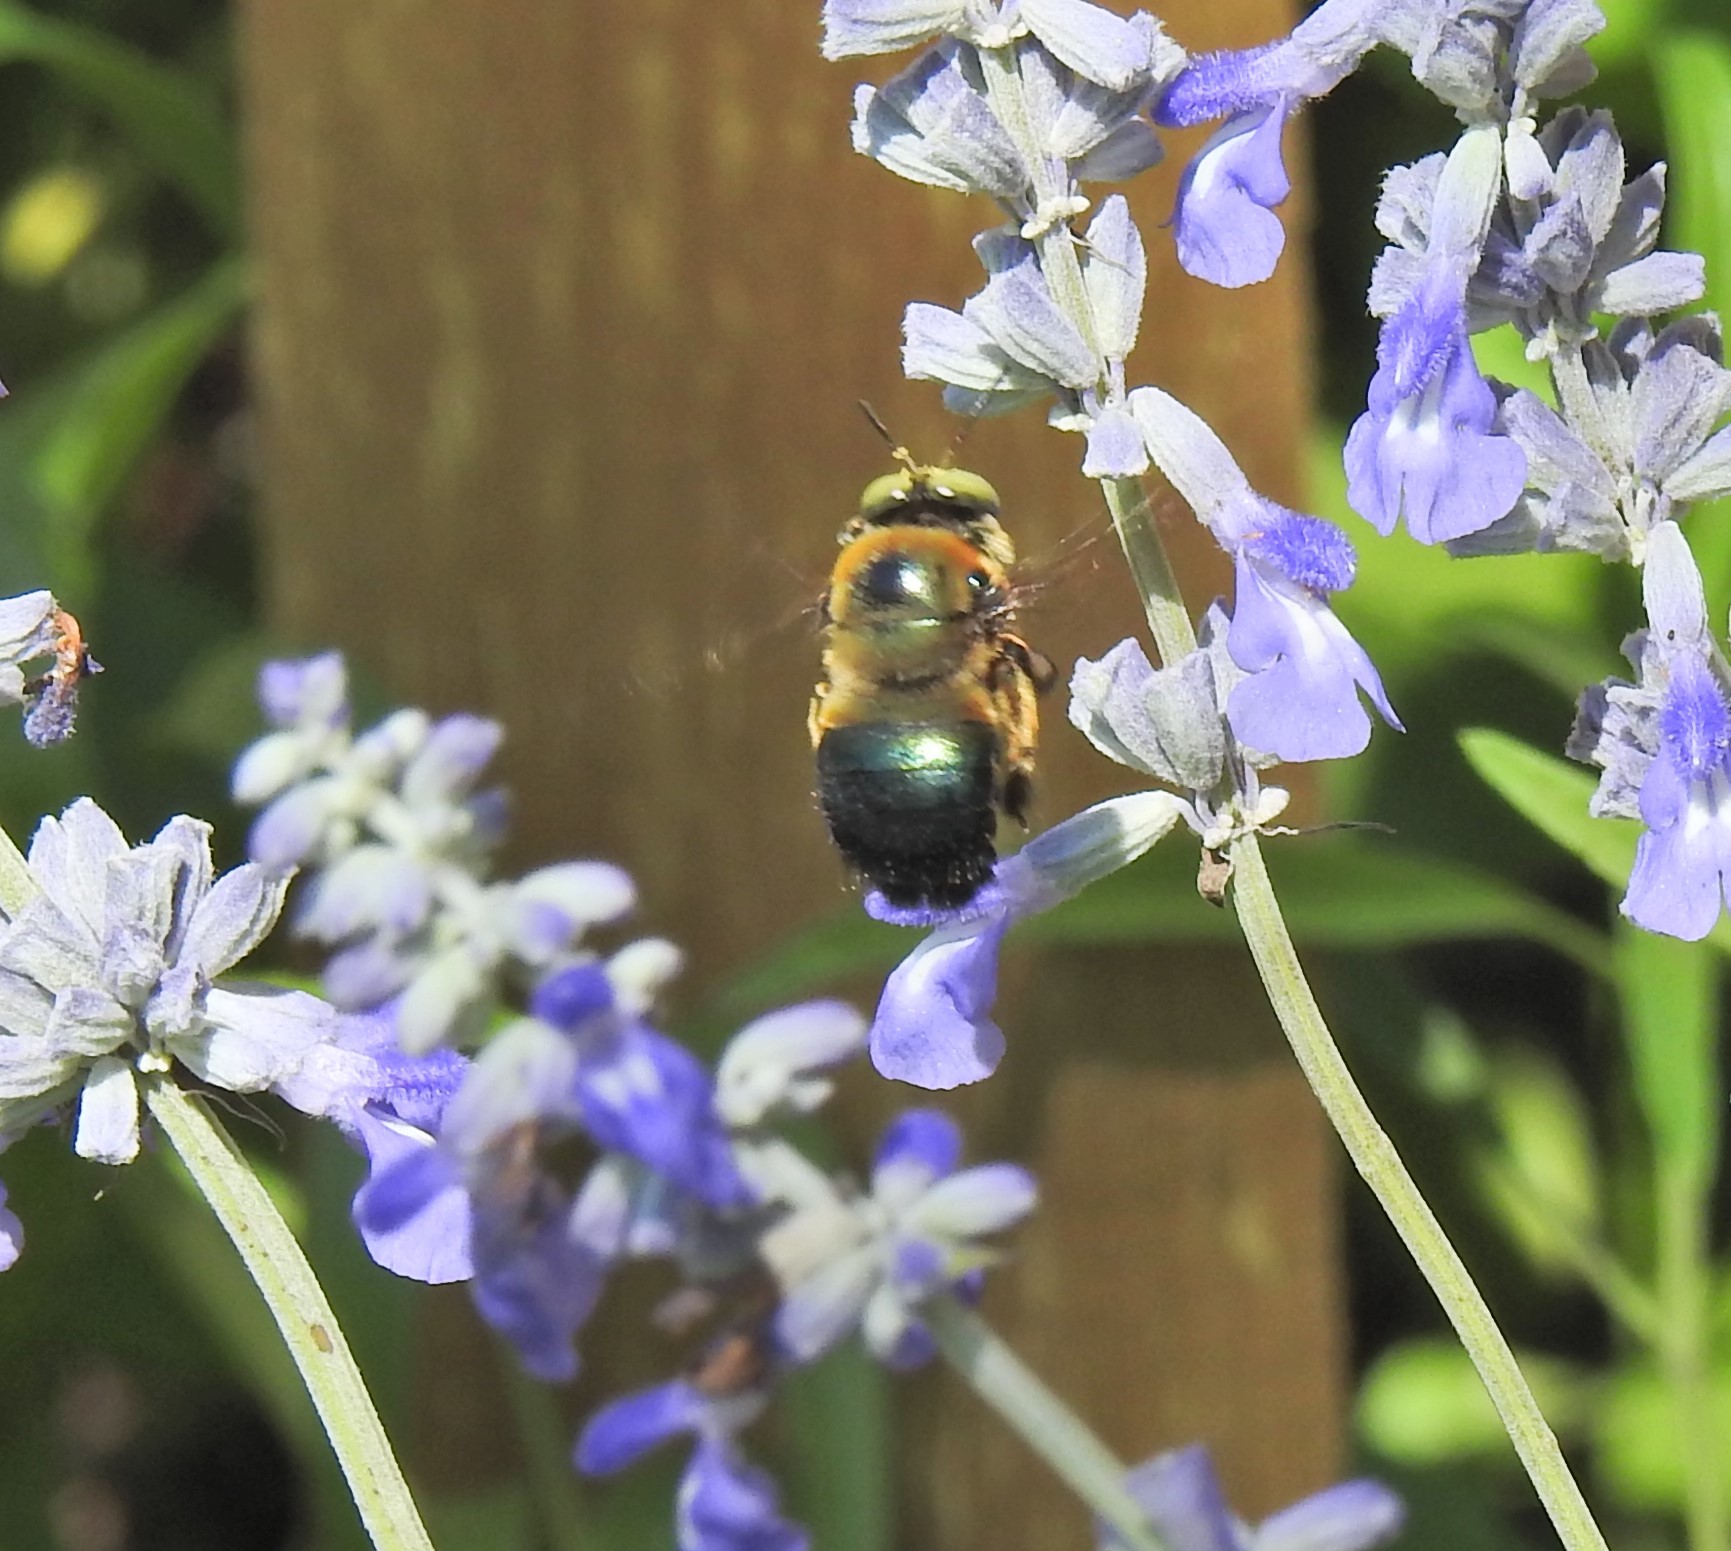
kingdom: Animalia
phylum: Arthropoda
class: Insecta
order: Hymenoptera
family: Apidae
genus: Xylocopa
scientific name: Xylocopa micans
